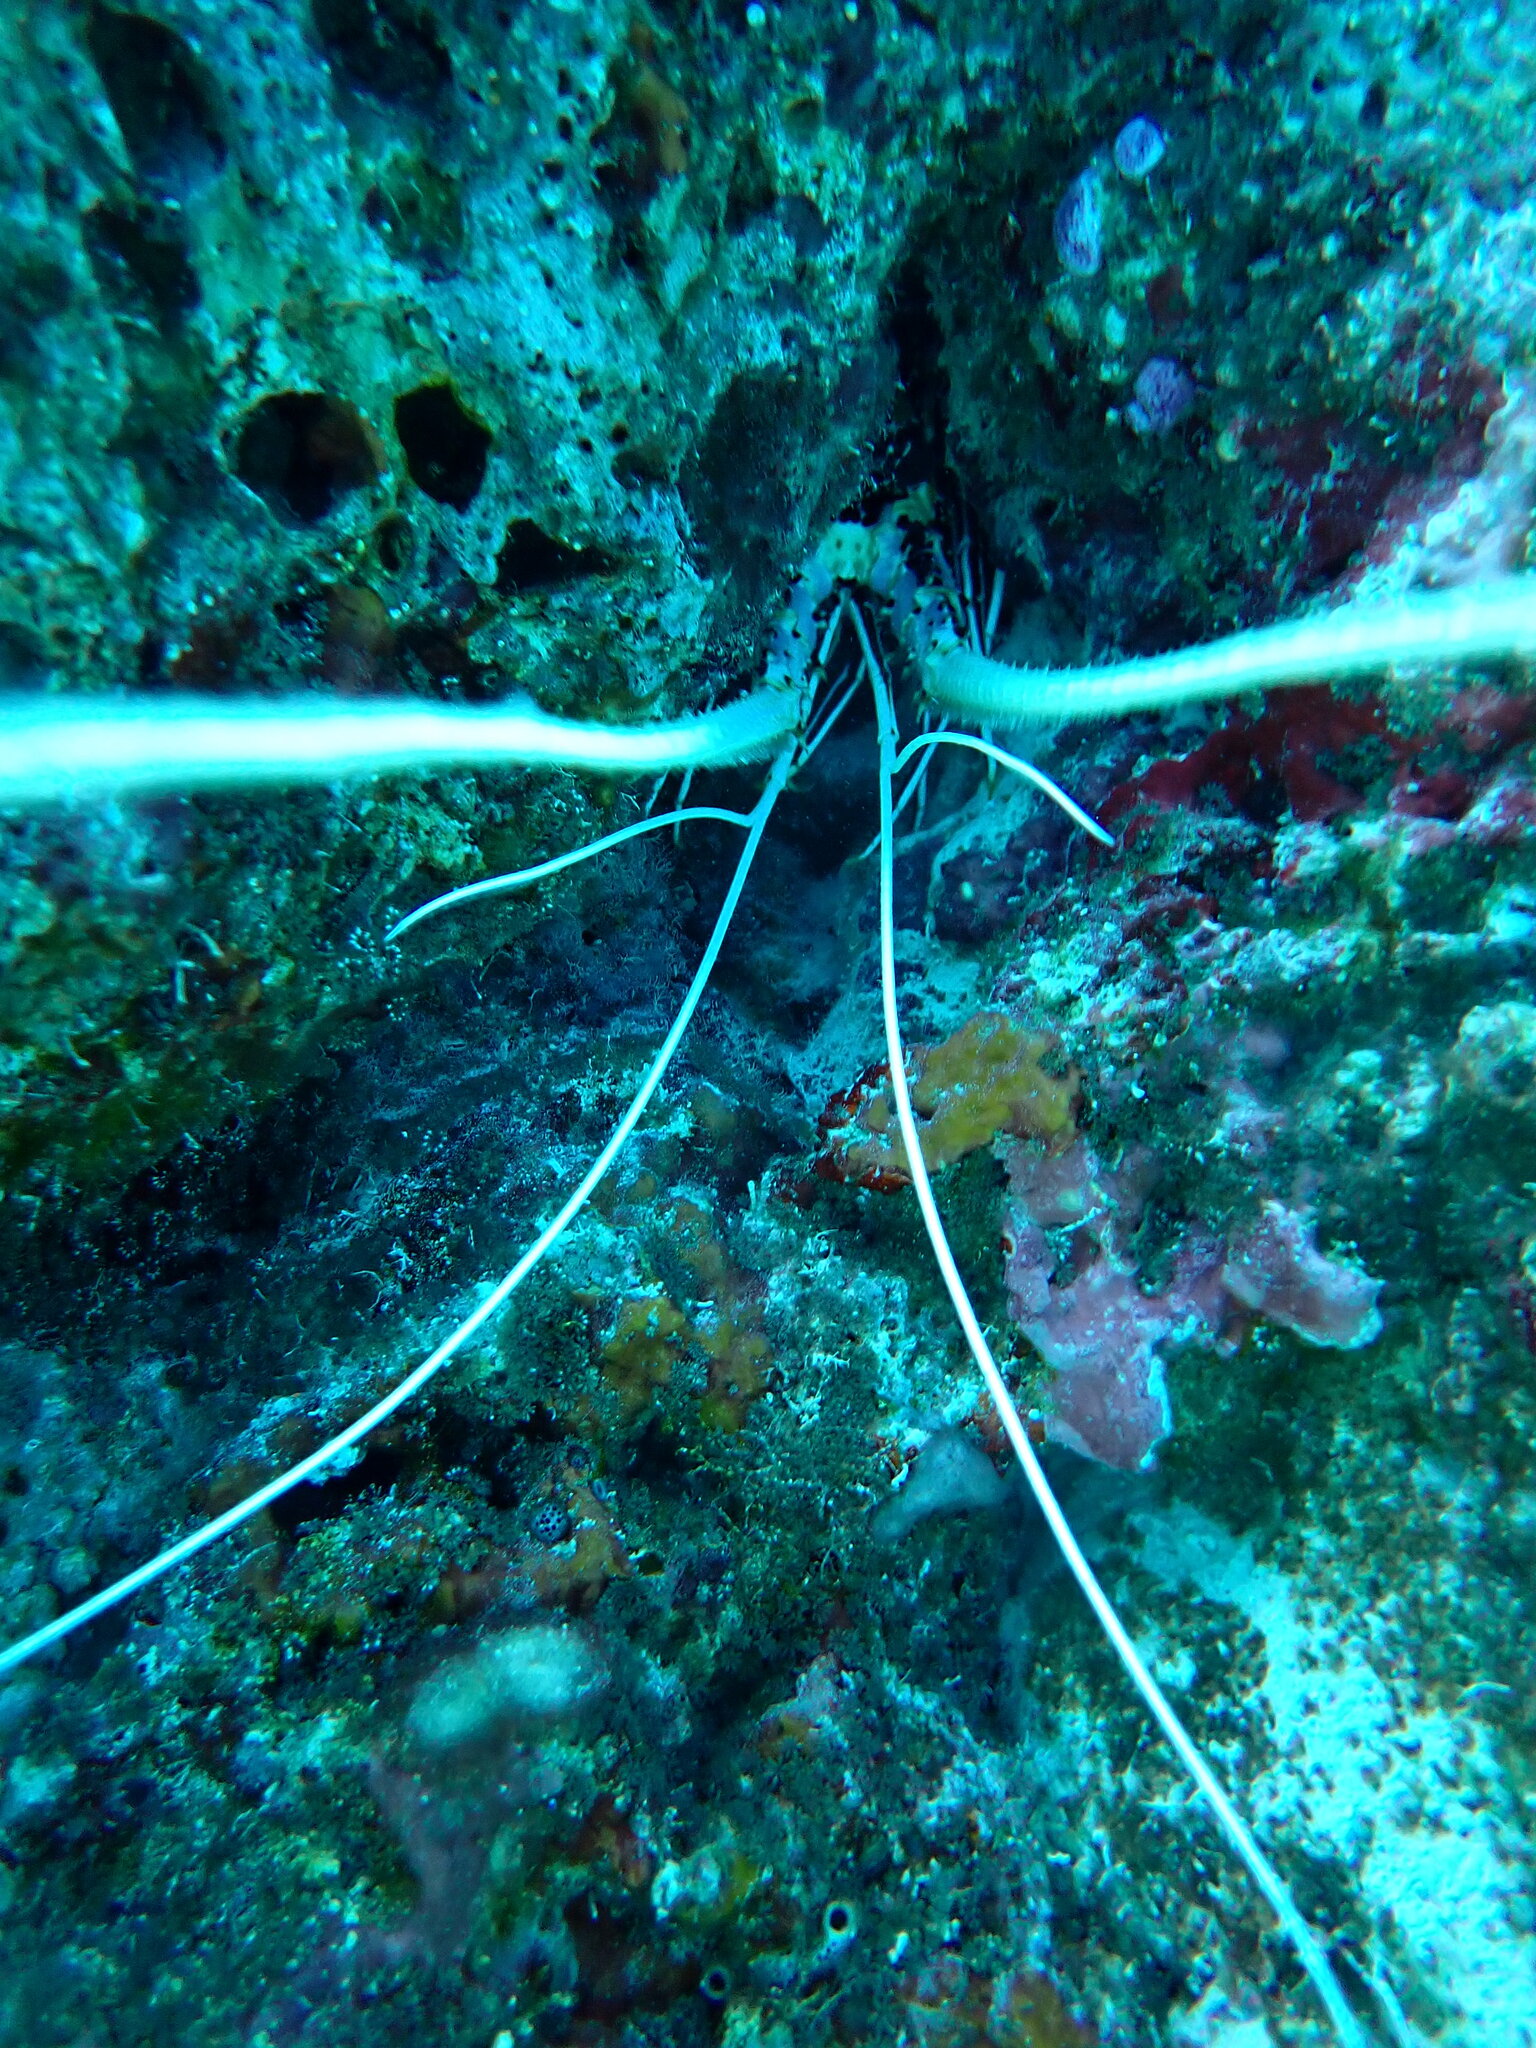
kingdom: Animalia
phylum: Arthropoda
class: Malacostraca
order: Decapoda
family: Palinuridae
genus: Panulirus
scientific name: Panulirus versicolor
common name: Painted spiny lobster
